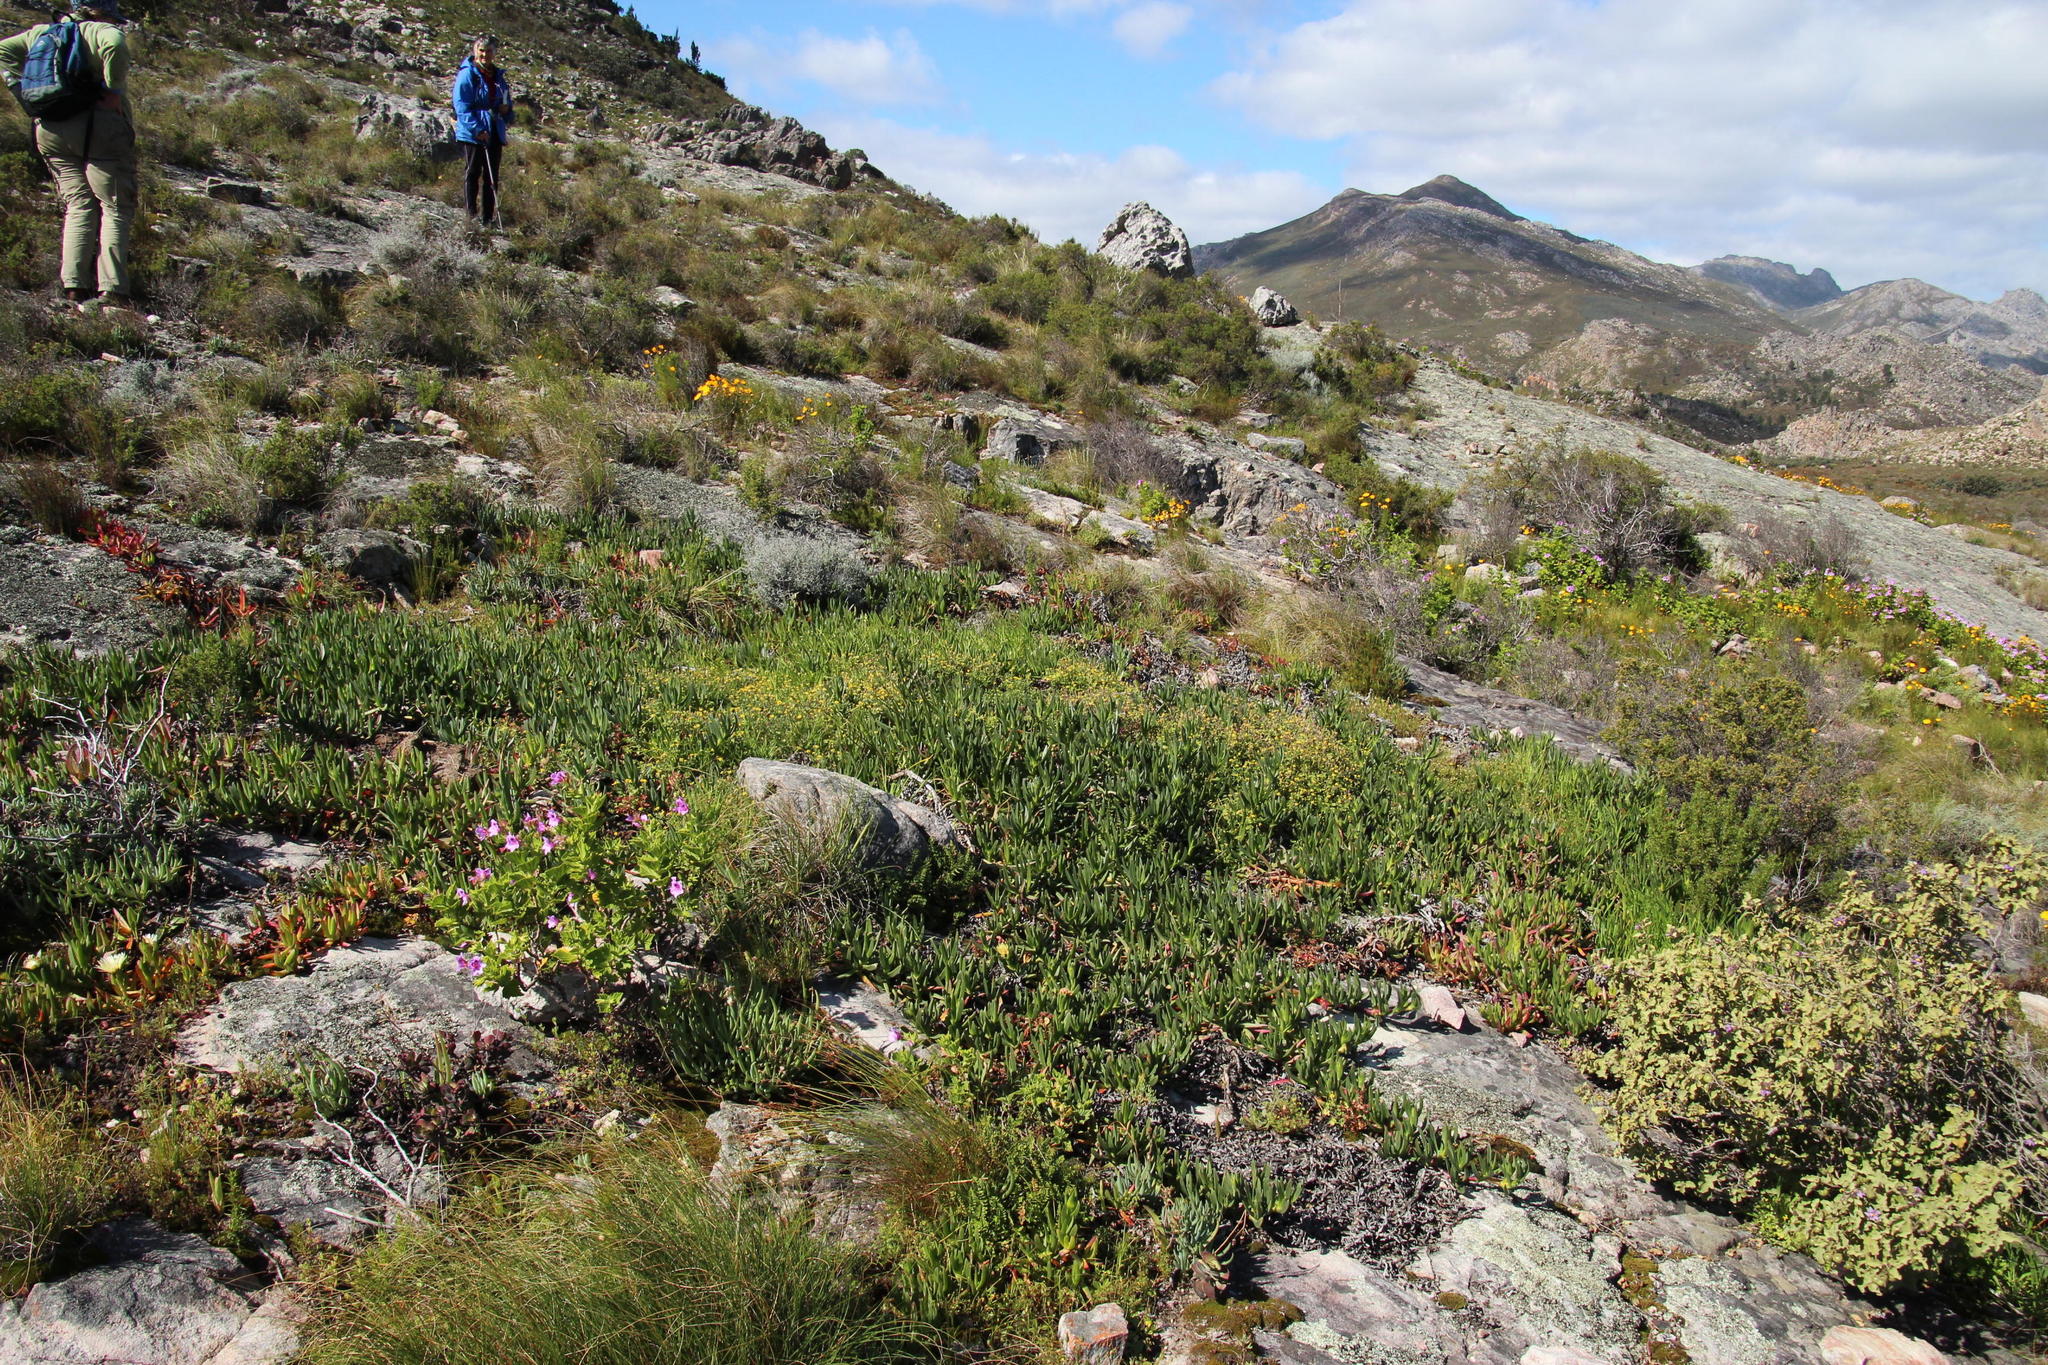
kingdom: Plantae
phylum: Tracheophyta
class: Magnoliopsida
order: Caryophyllales
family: Aizoaceae
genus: Carpobrotus
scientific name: Carpobrotus edulis
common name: Hottentot-fig
